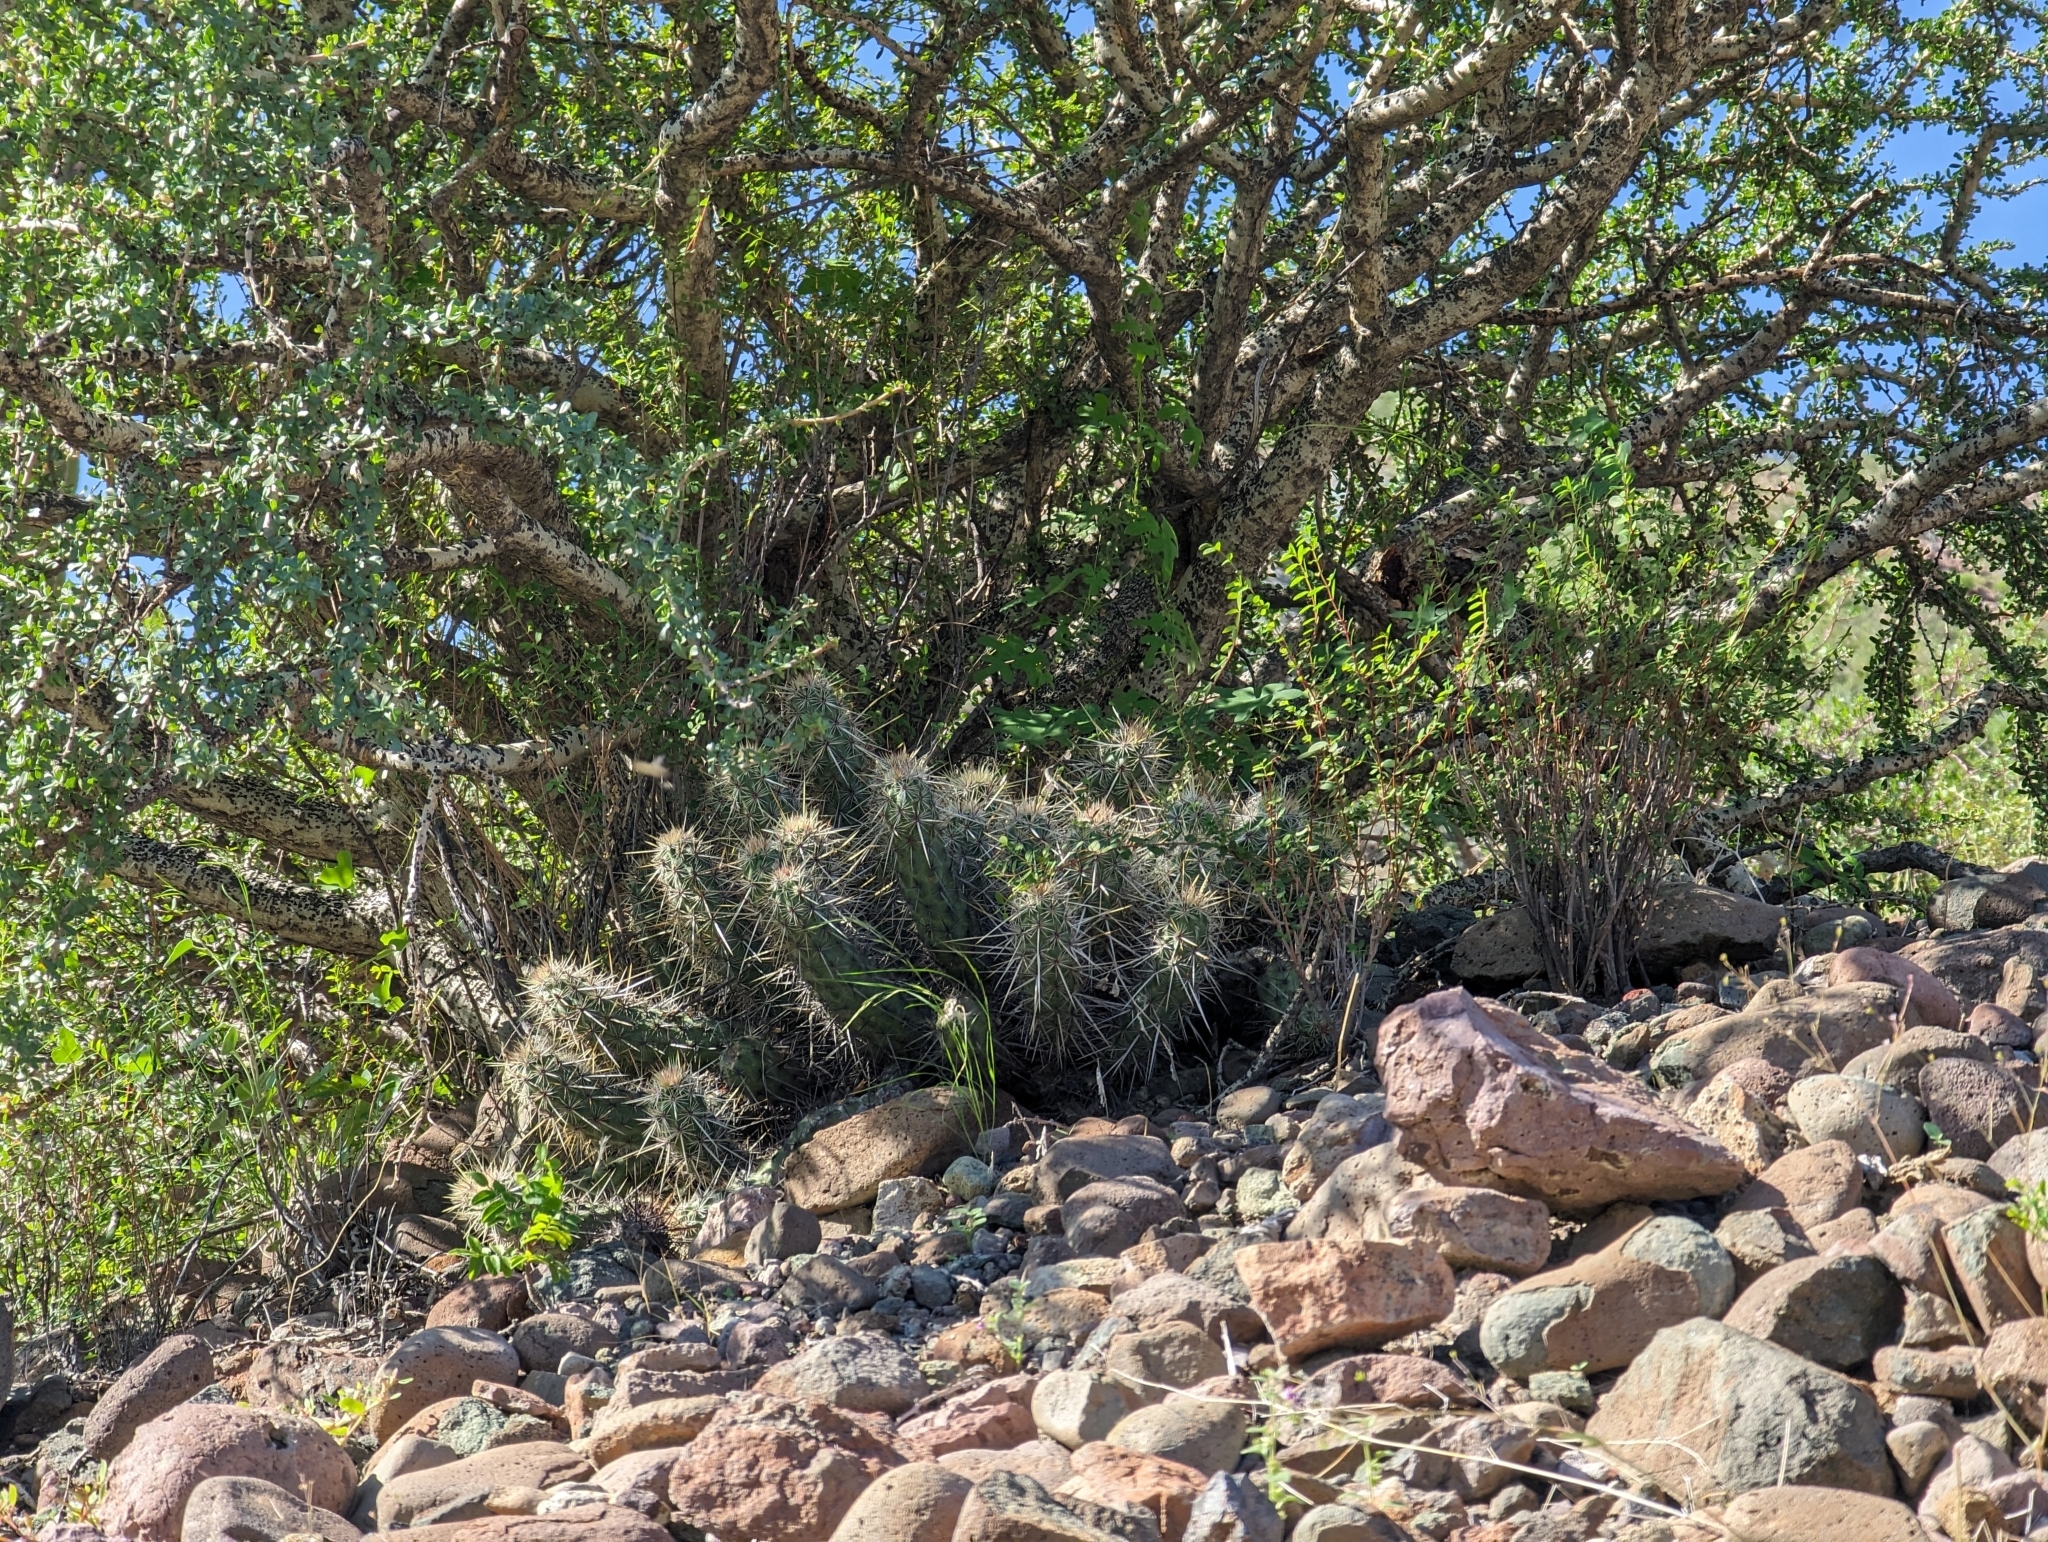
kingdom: Plantae
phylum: Tracheophyta
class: Magnoliopsida
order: Caryophyllales
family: Cactaceae
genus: Echinocereus
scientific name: Echinocereus brandegeei
